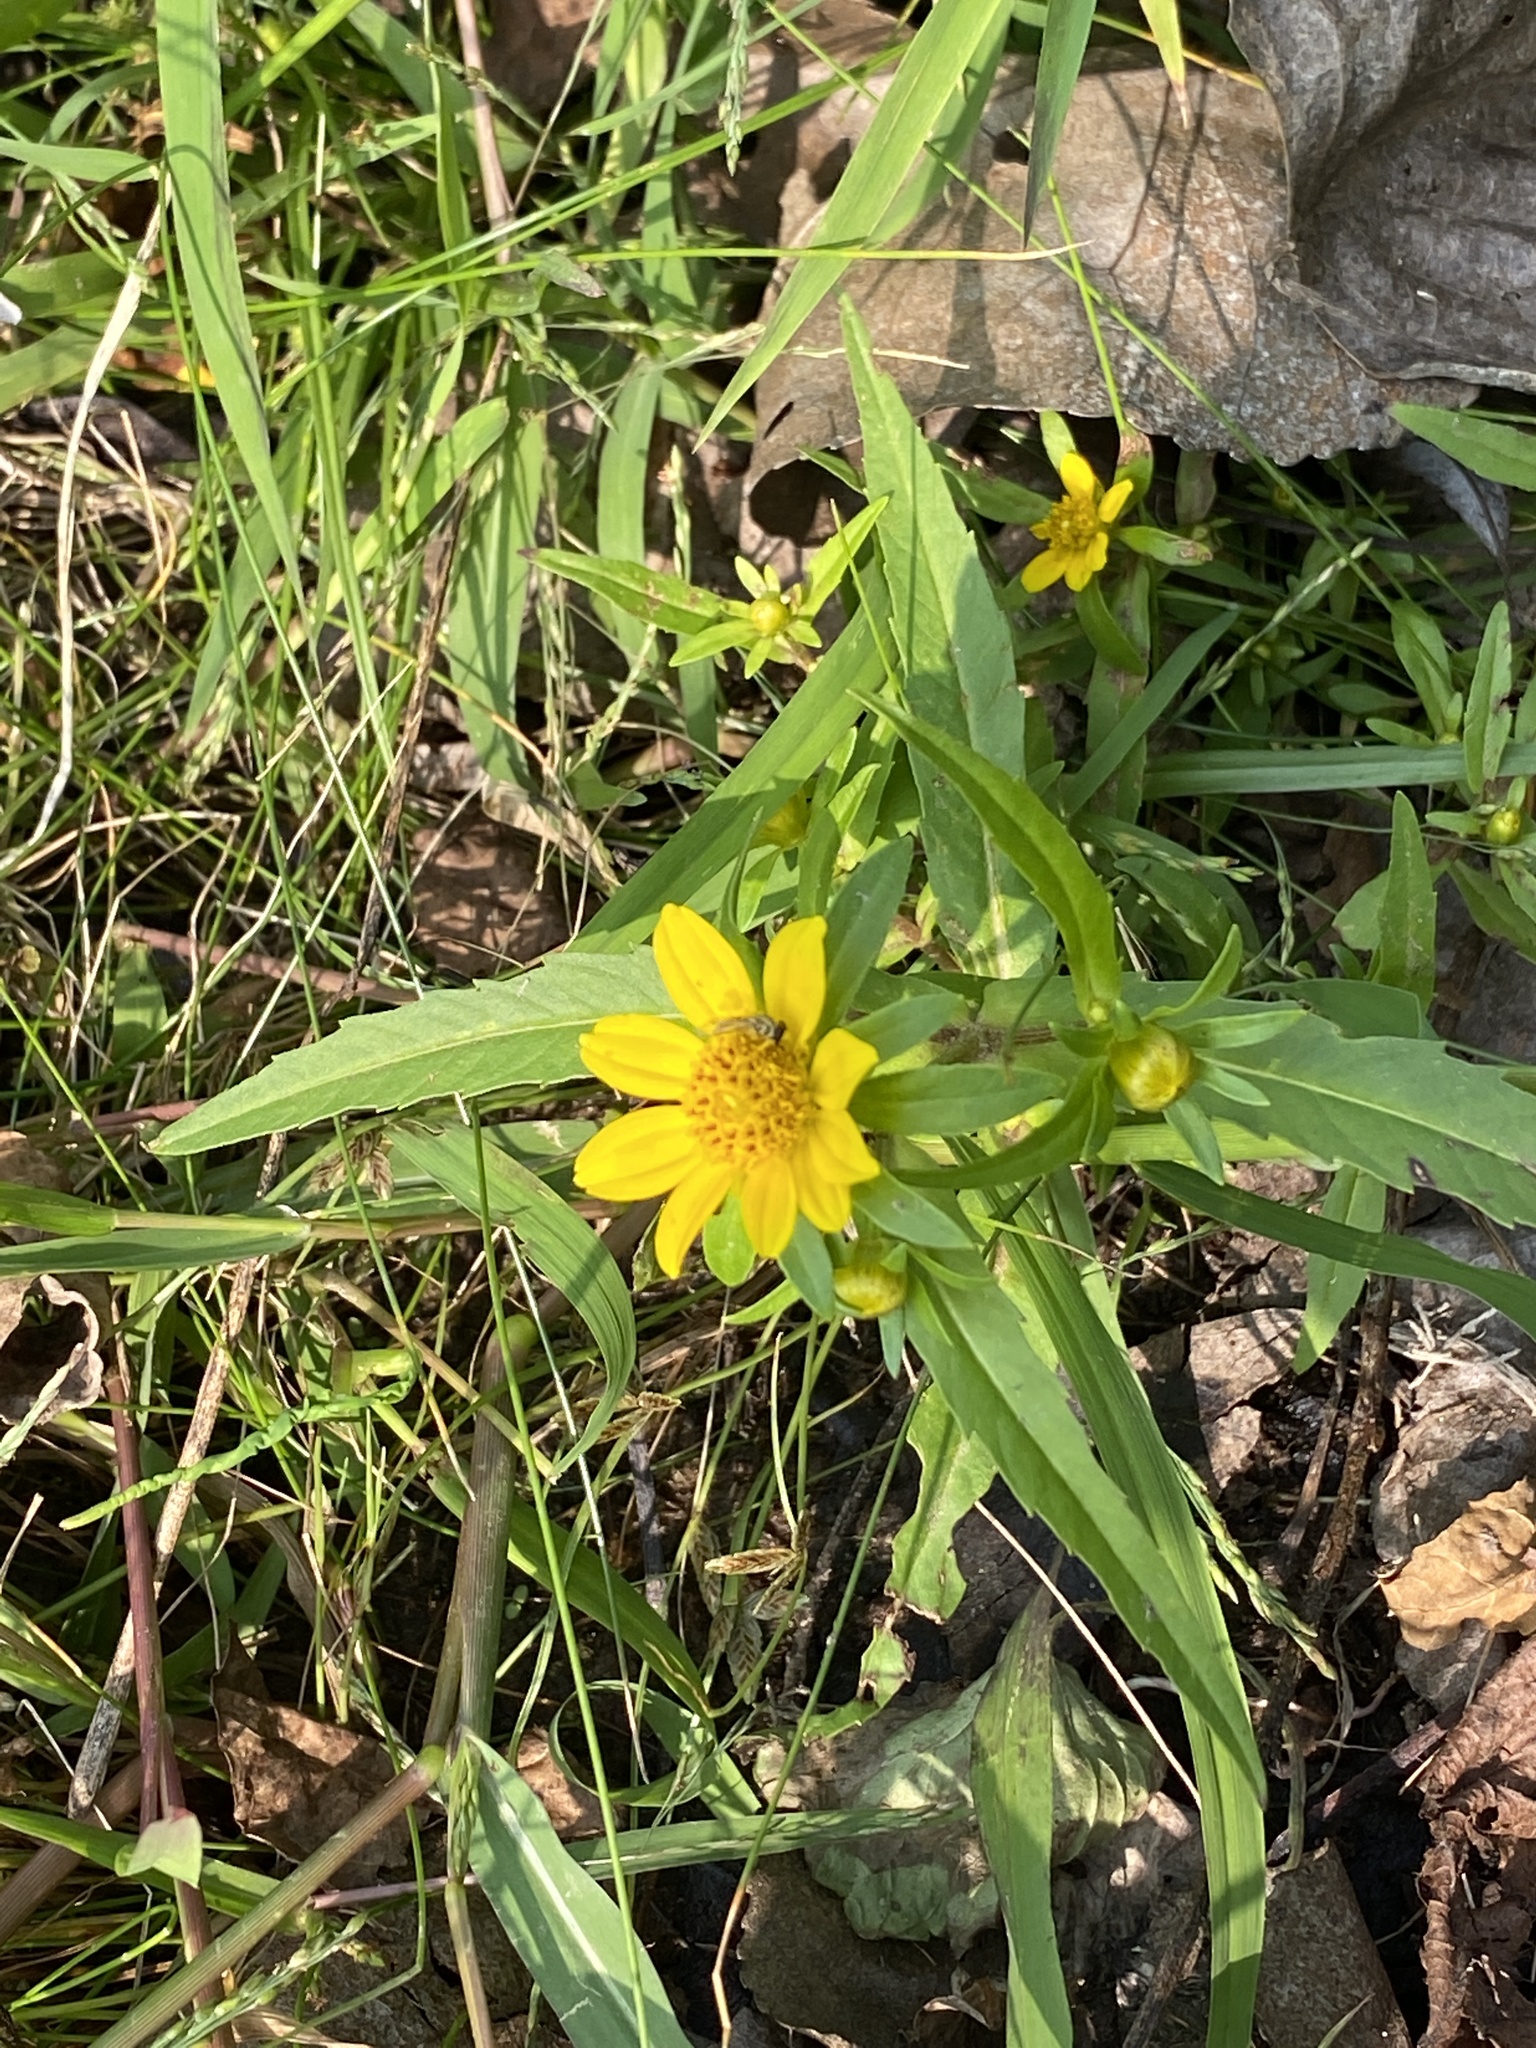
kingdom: Plantae
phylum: Tracheophyta
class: Magnoliopsida
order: Asterales
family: Asteraceae
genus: Bidens
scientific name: Bidens cernua
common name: Nodding bur-marigold
